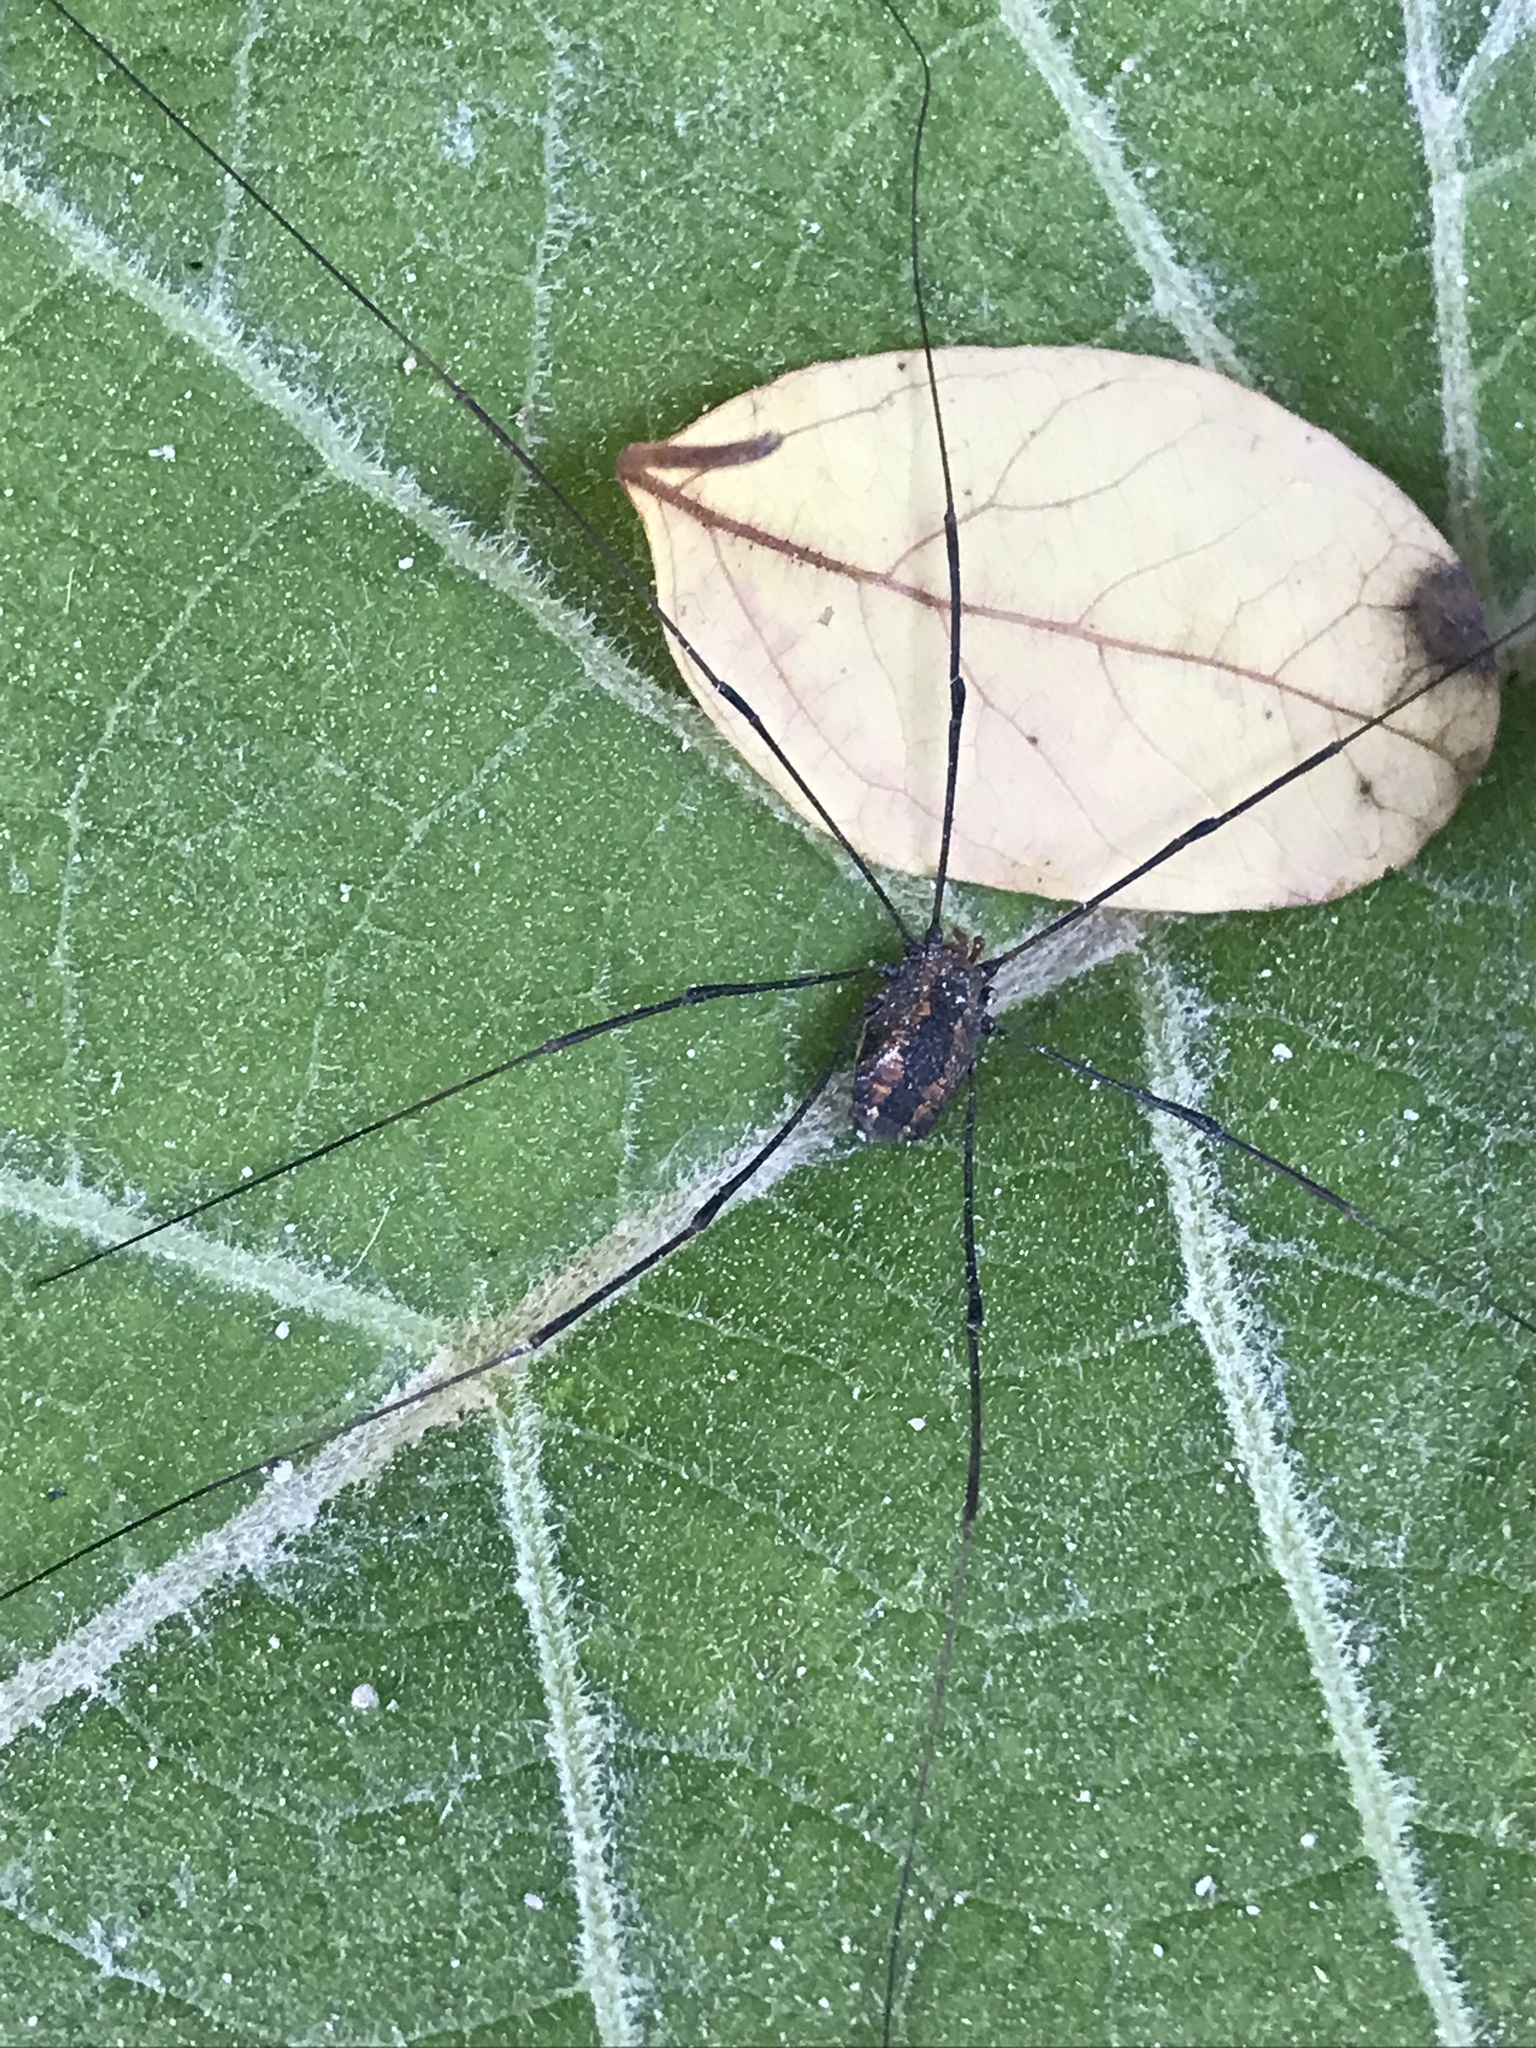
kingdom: Animalia
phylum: Arthropoda
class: Arachnida
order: Opiliones
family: Sclerosomatidae
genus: Leiobunum
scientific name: Leiobunum vittatum
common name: Eastern harvestman
